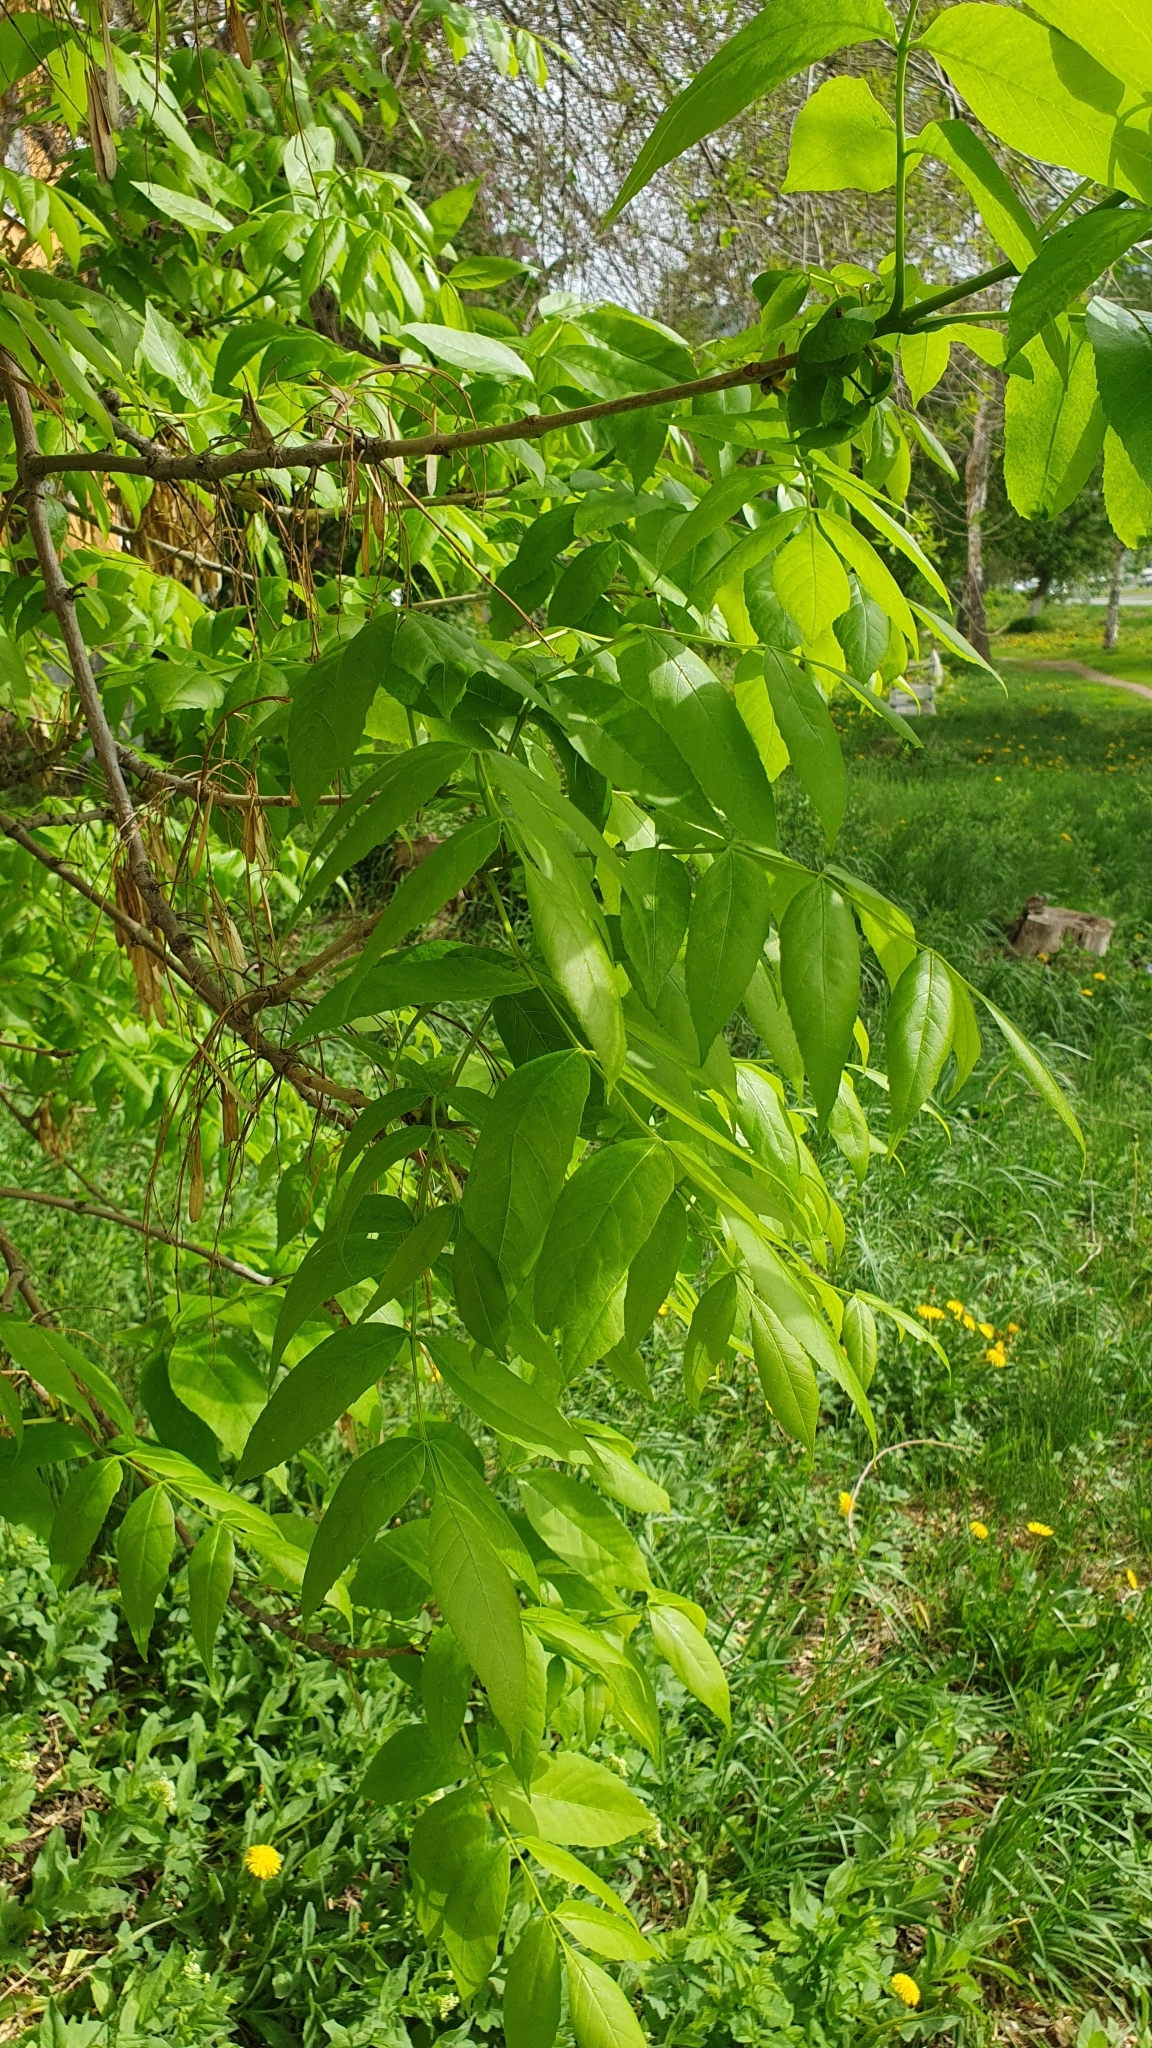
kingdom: Plantae
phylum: Tracheophyta
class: Magnoliopsida
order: Lamiales
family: Oleaceae
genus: Fraxinus
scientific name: Fraxinus pennsylvanica
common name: Green ash
